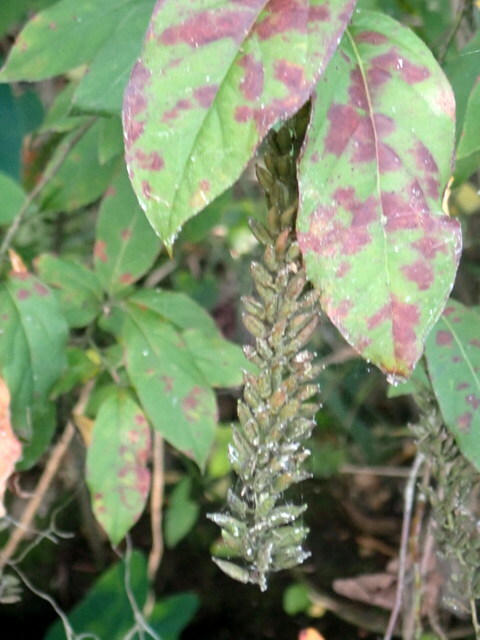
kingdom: Plantae
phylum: Tracheophyta
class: Magnoliopsida
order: Saxifragales
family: Iteaceae
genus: Itea
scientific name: Itea virginica
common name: Sweetspire
